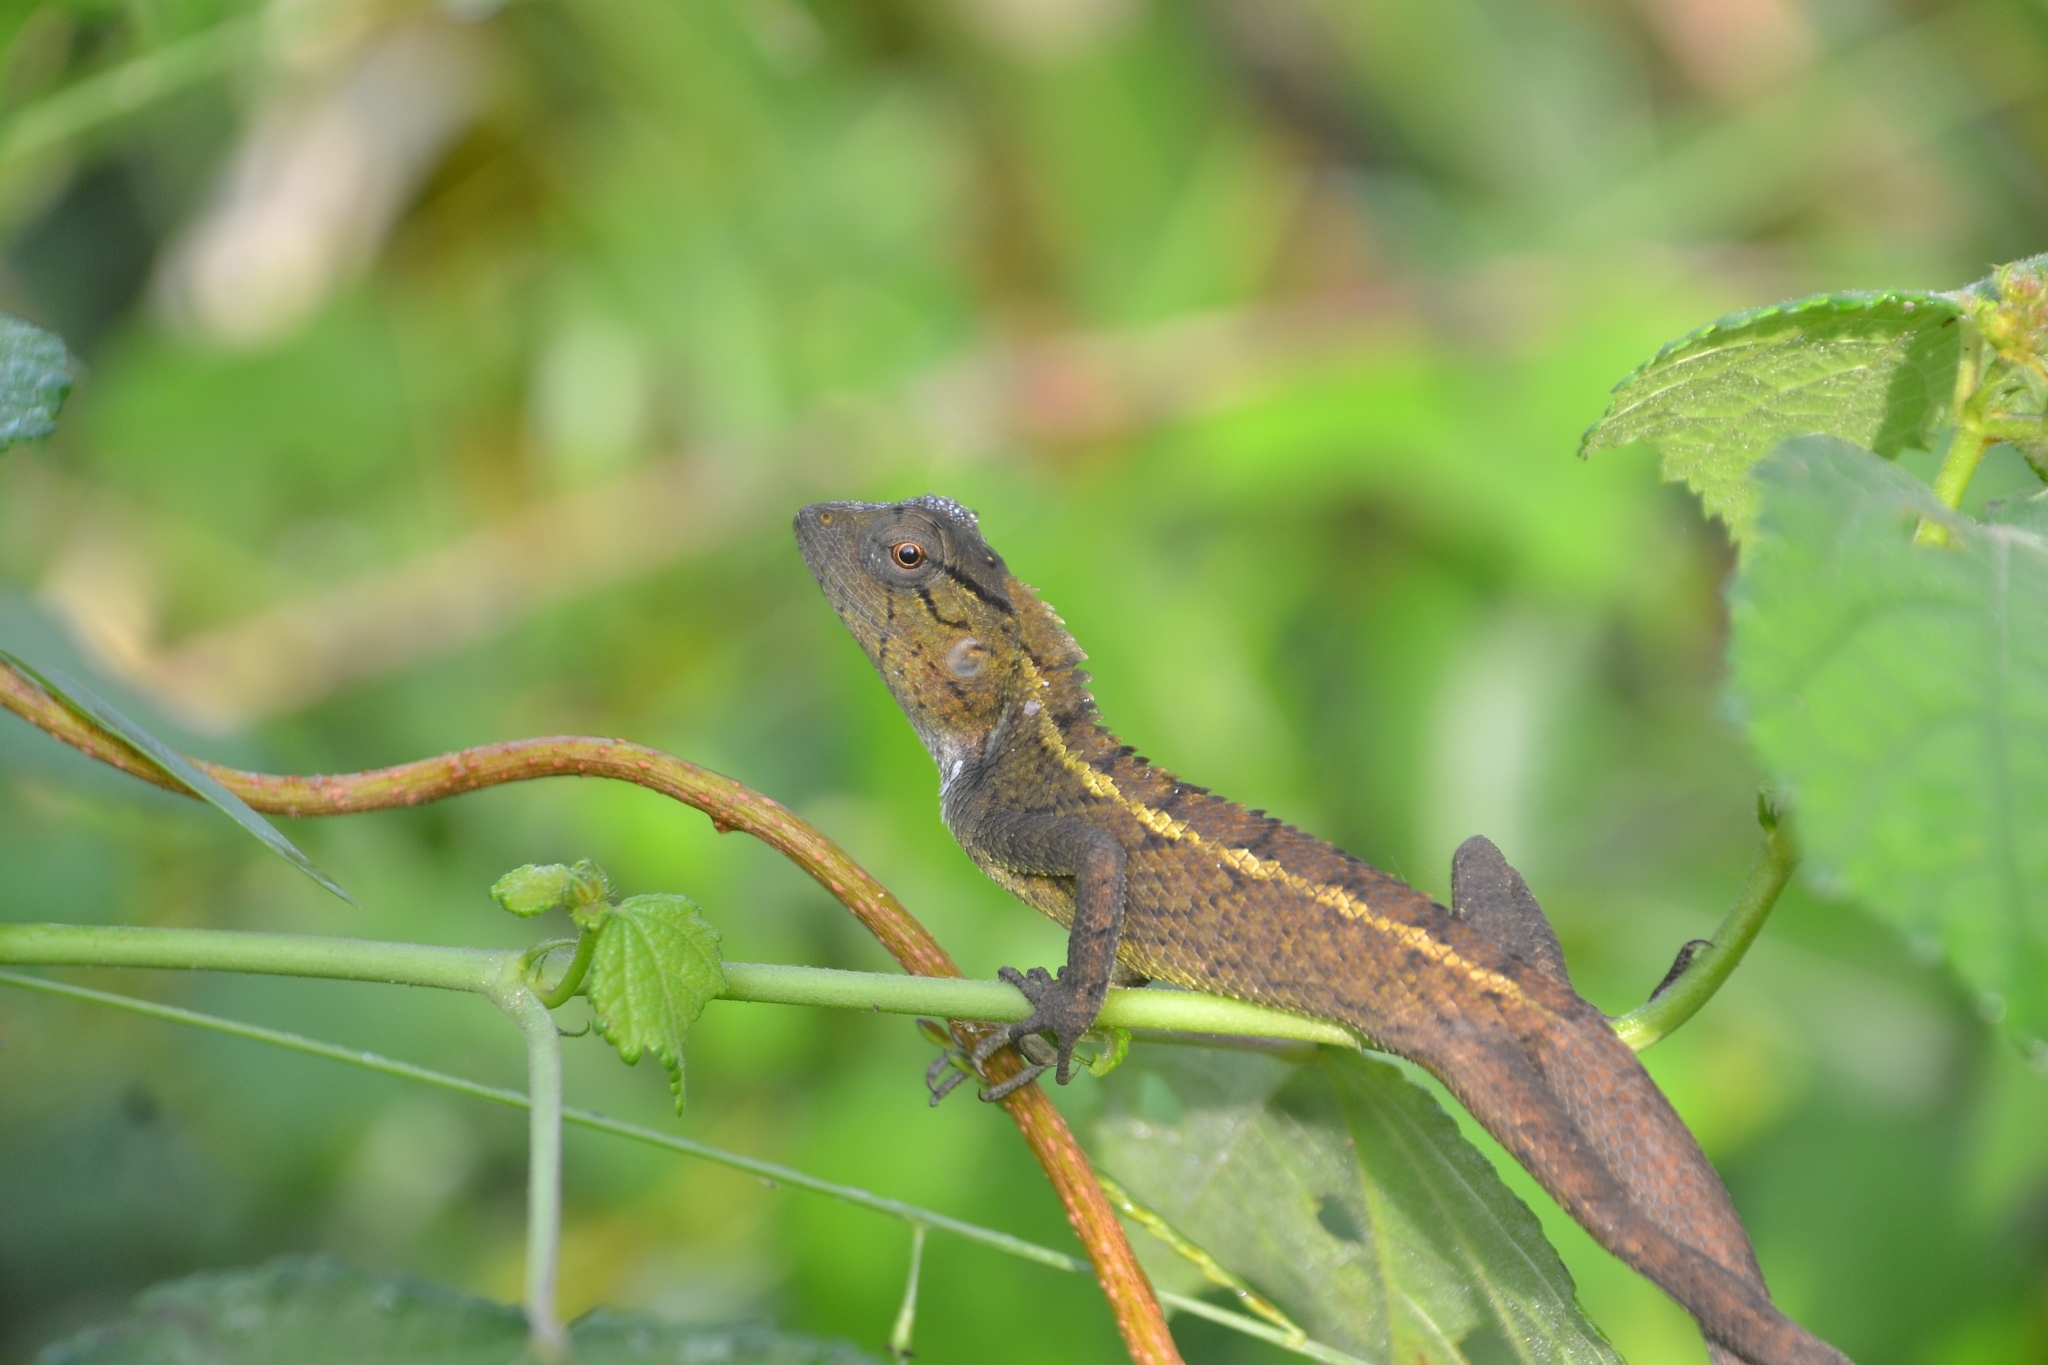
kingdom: Animalia
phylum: Chordata
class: Squamata
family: Agamidae
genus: Calotes
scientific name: Calotes versicolor
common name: Oriental garden lizard
